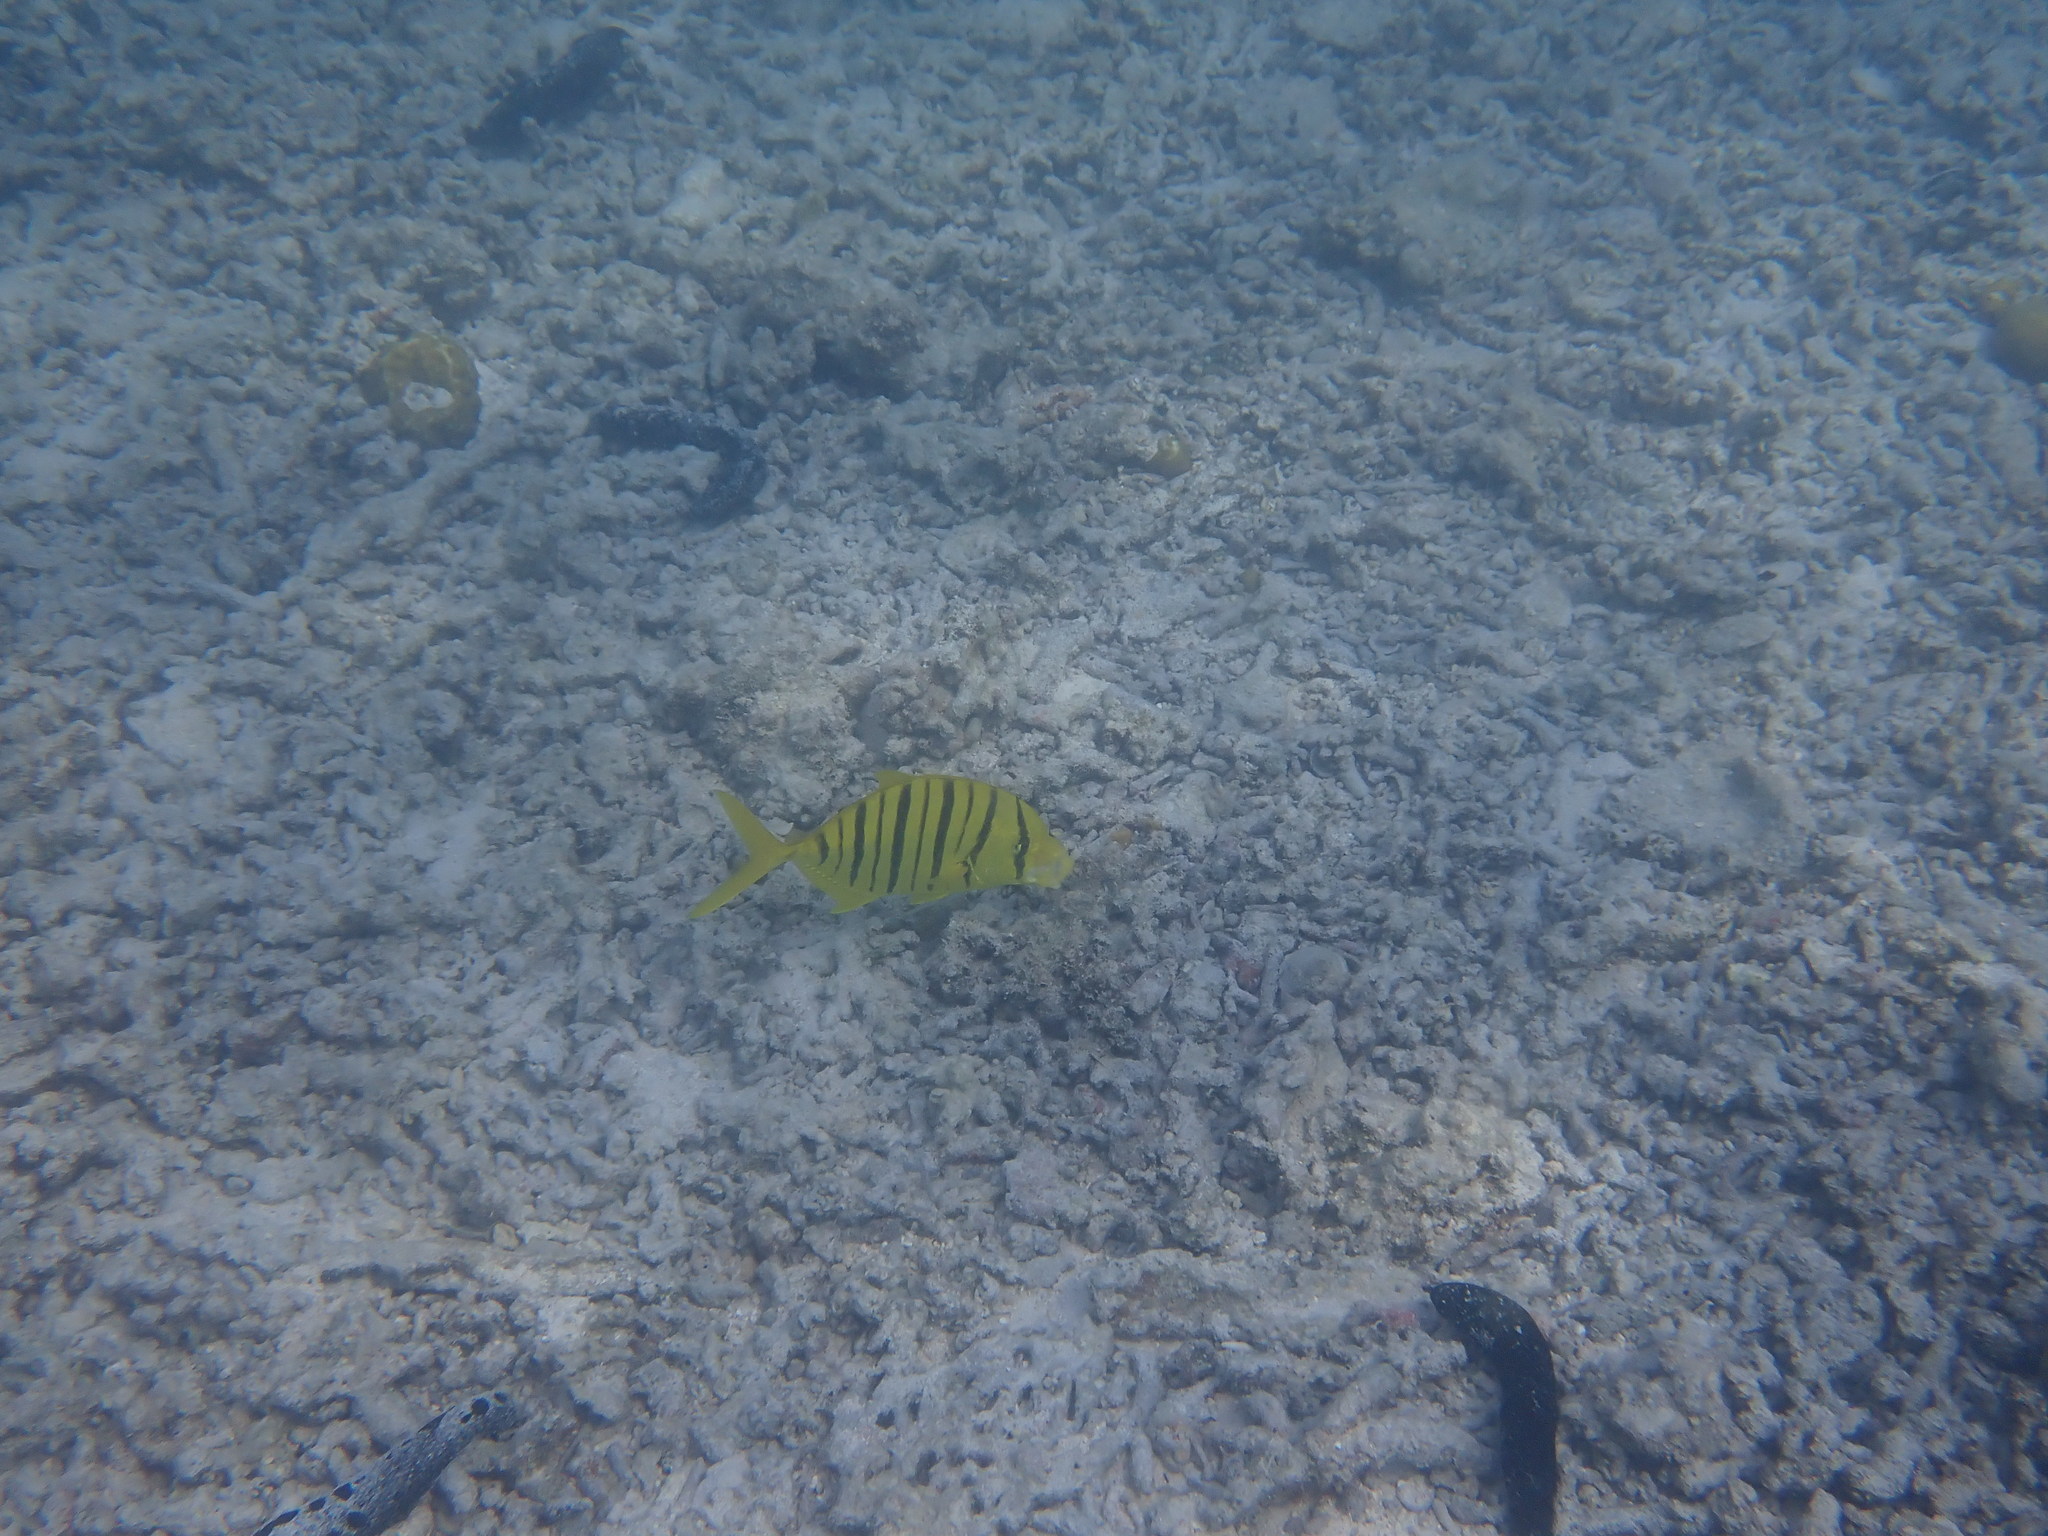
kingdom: Animalia
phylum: Chordata
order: Perciformes
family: Carangidae
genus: Gnathanodon
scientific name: Gnathanodon speciosus
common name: Golden toothless trevally
